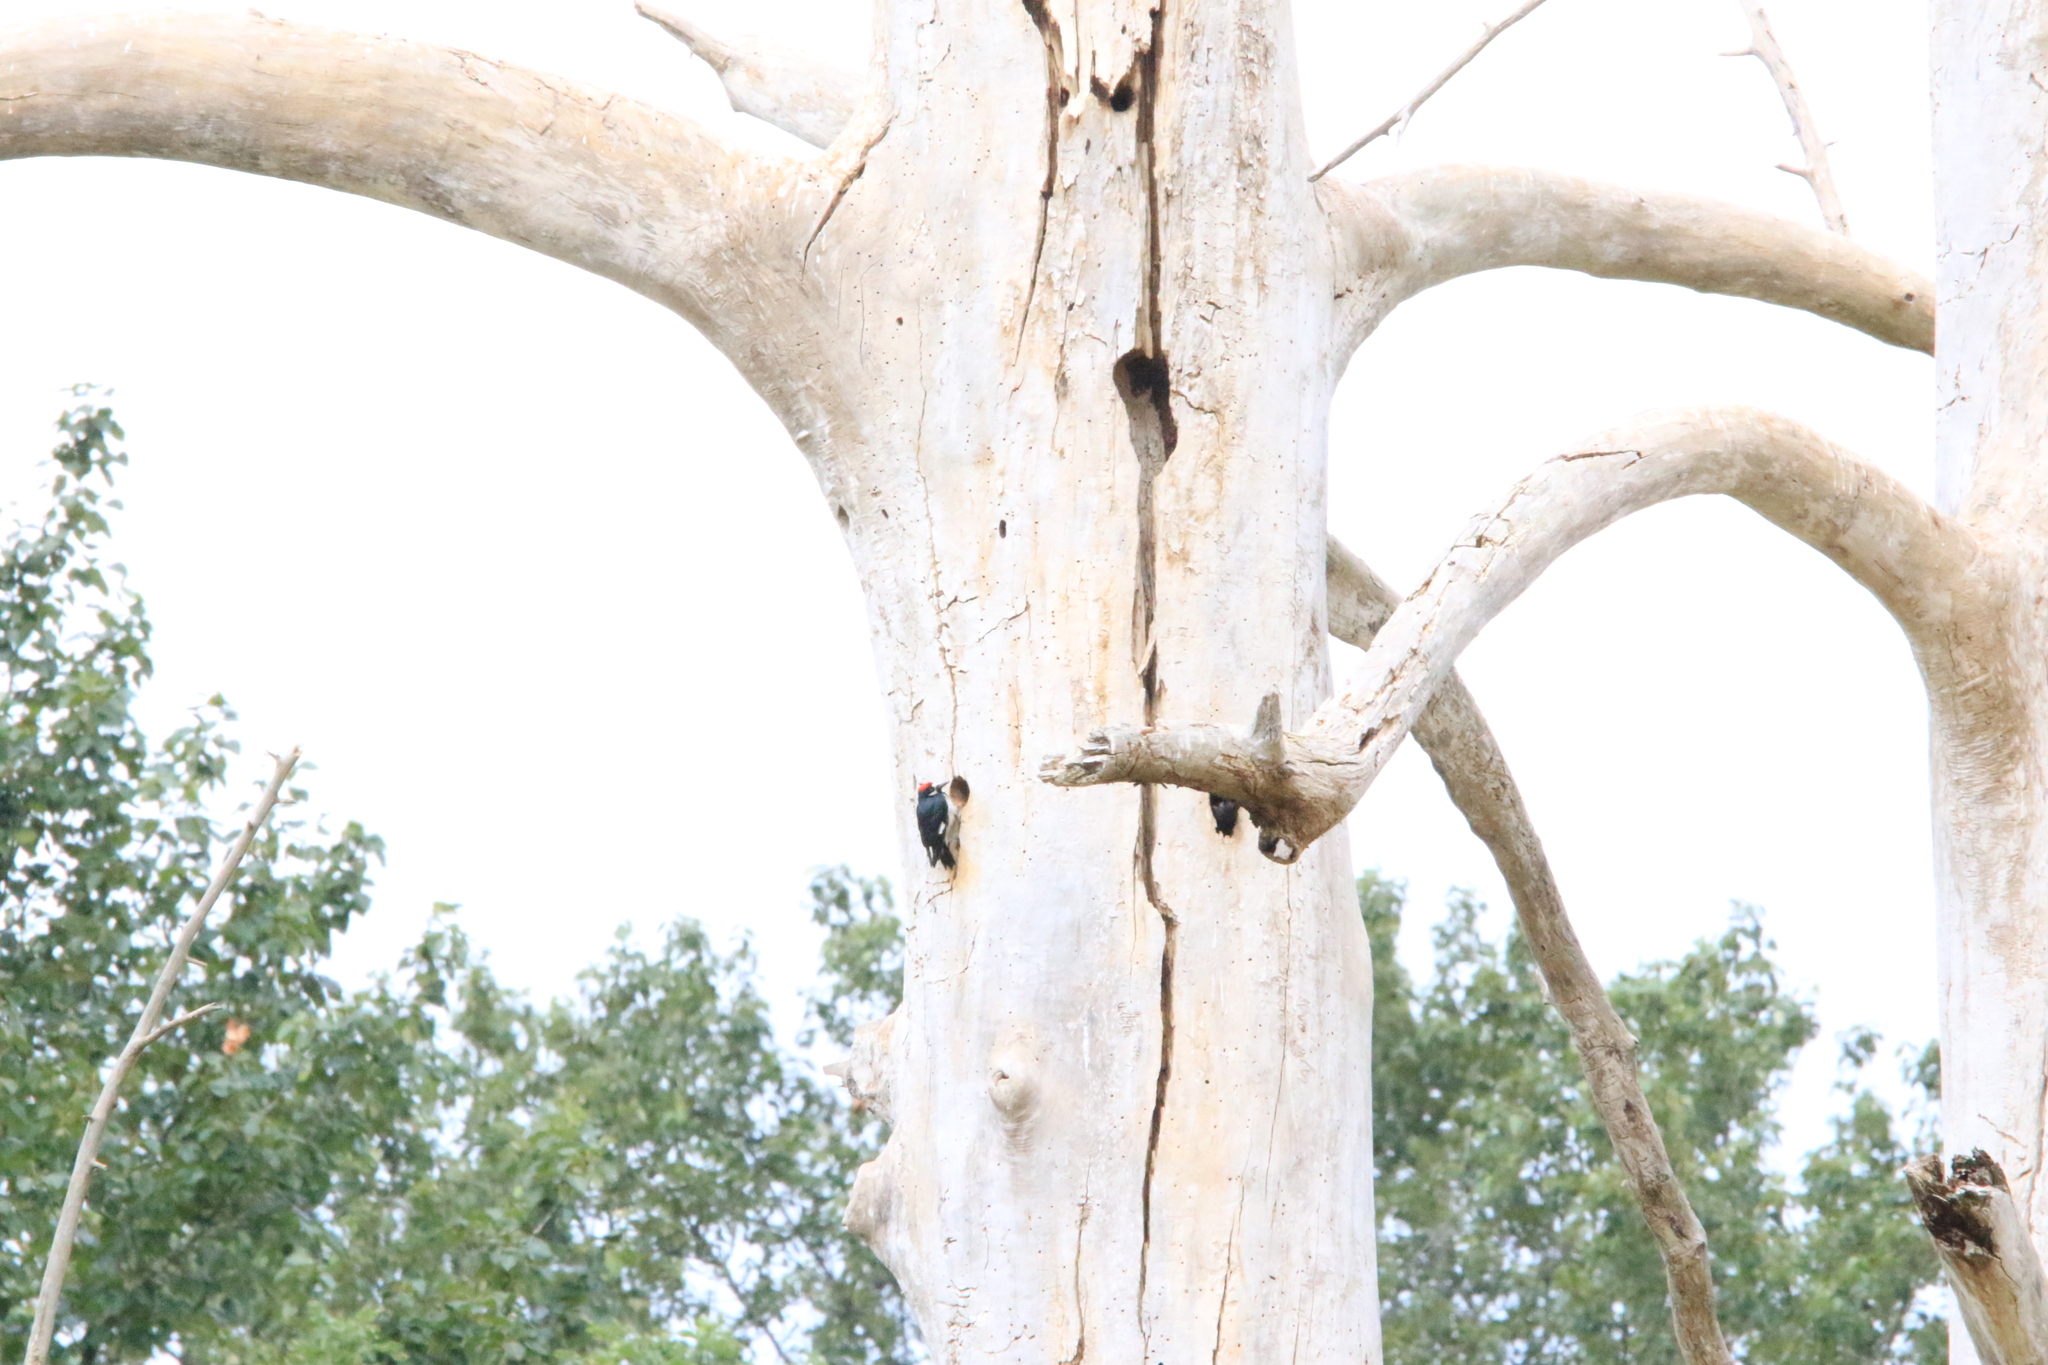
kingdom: Animalia
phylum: Chordata
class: Aves
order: Piciformes
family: Picidae
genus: Melanerpes
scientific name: Melanerpes formicivorus
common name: Acorn woodpecker
